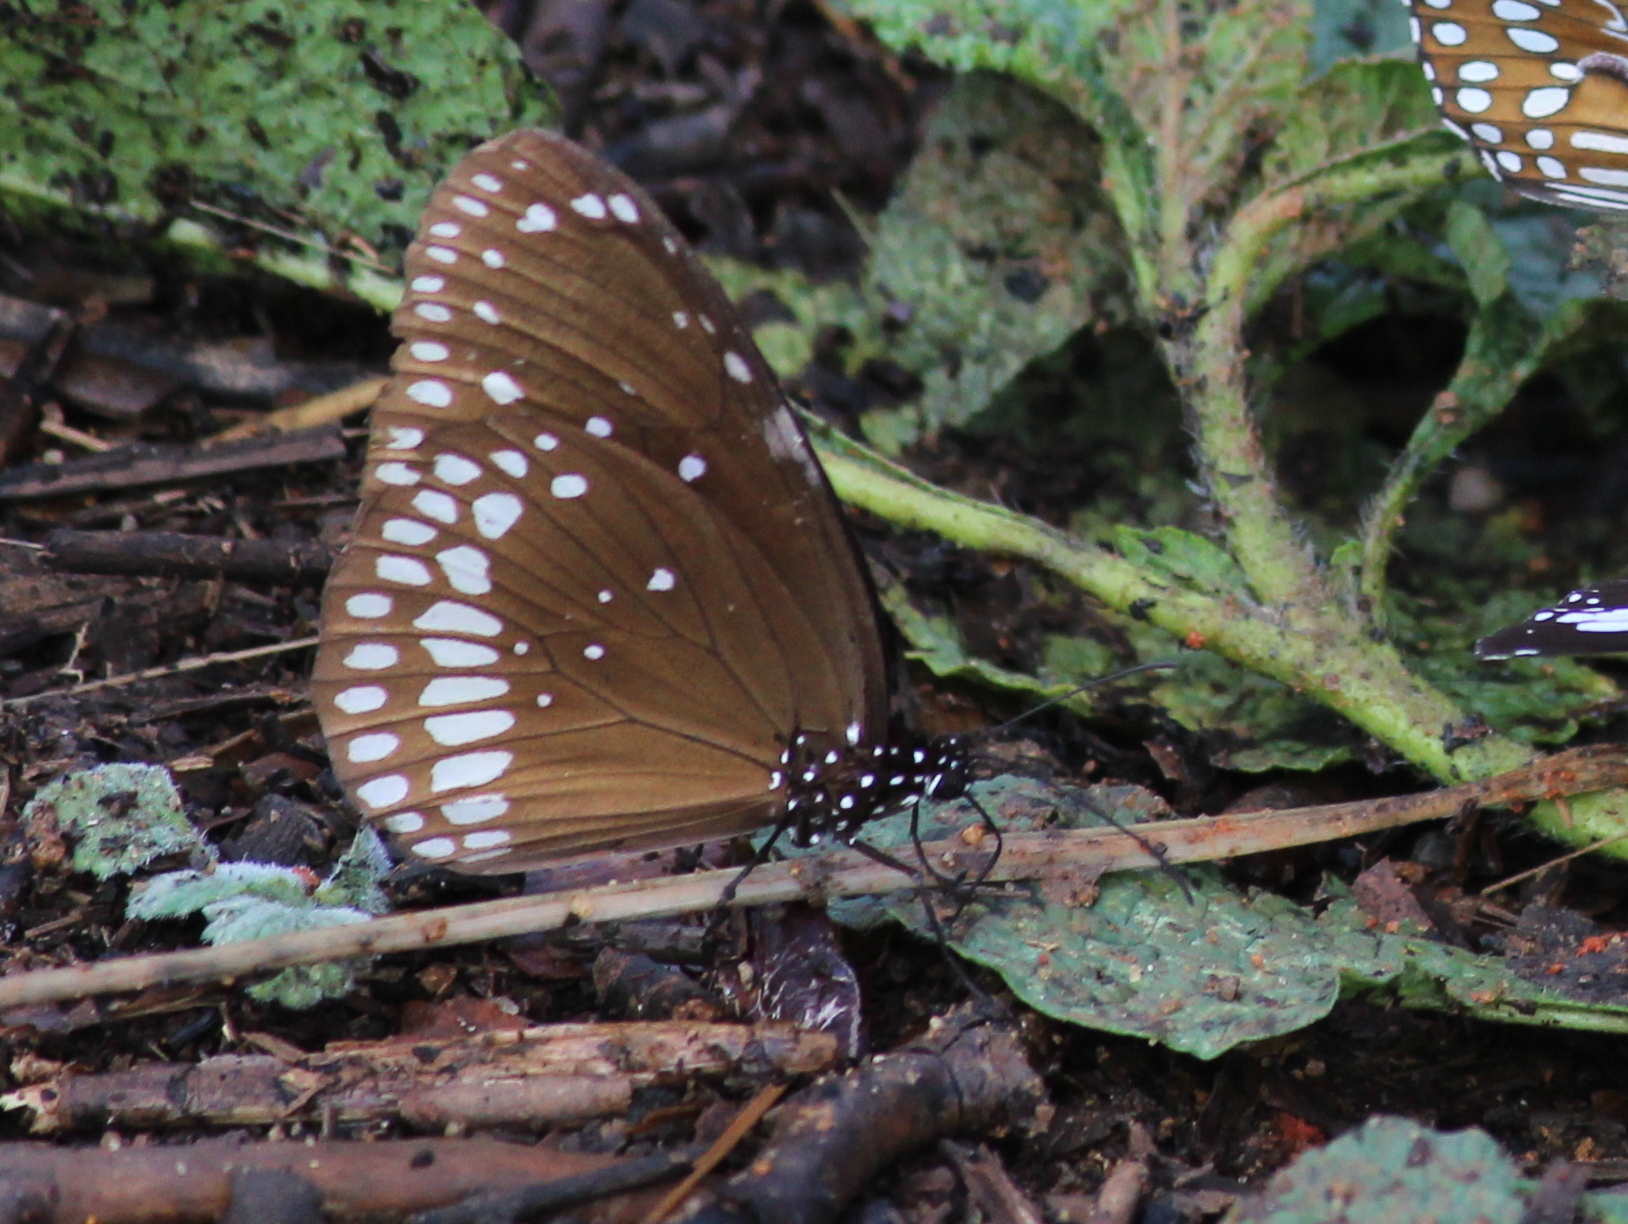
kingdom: Animalia
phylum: Arthropoda
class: Insecta
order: Lepidoptera
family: Nymphalidae
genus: Euploea
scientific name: Euploea core
